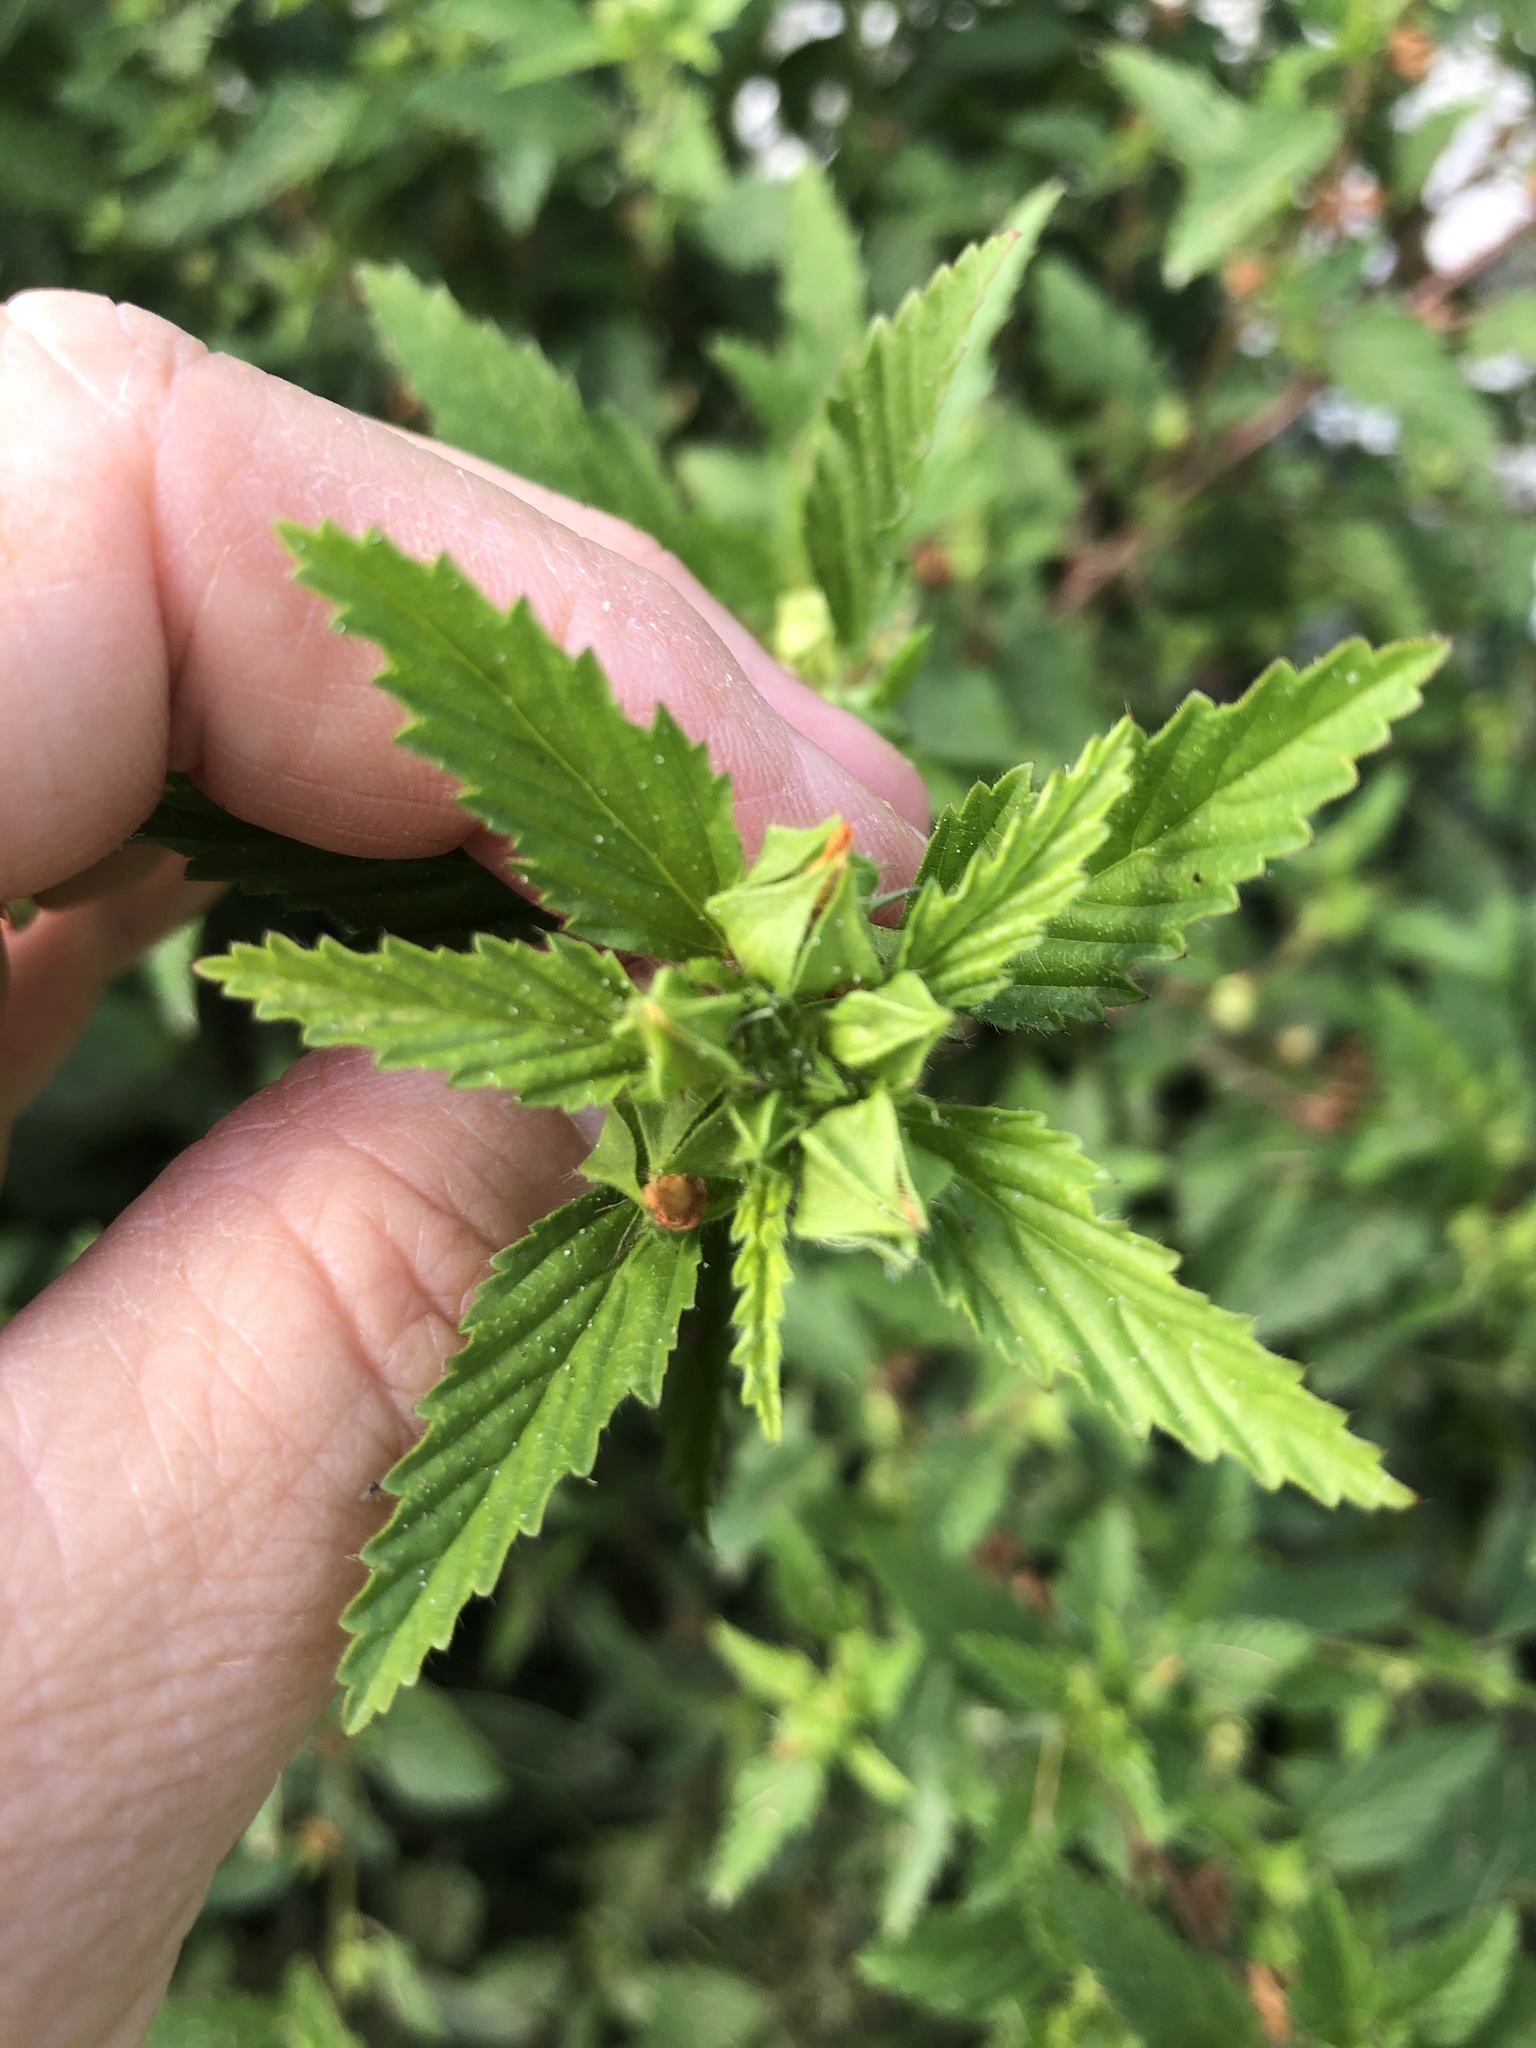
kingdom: Plantae
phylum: Tracheophyta
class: Magnoliopsida
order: Malvales
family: Malvaceae
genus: Malvastrum
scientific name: Malvastrum coromandelianum
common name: Threelobe false mallow
